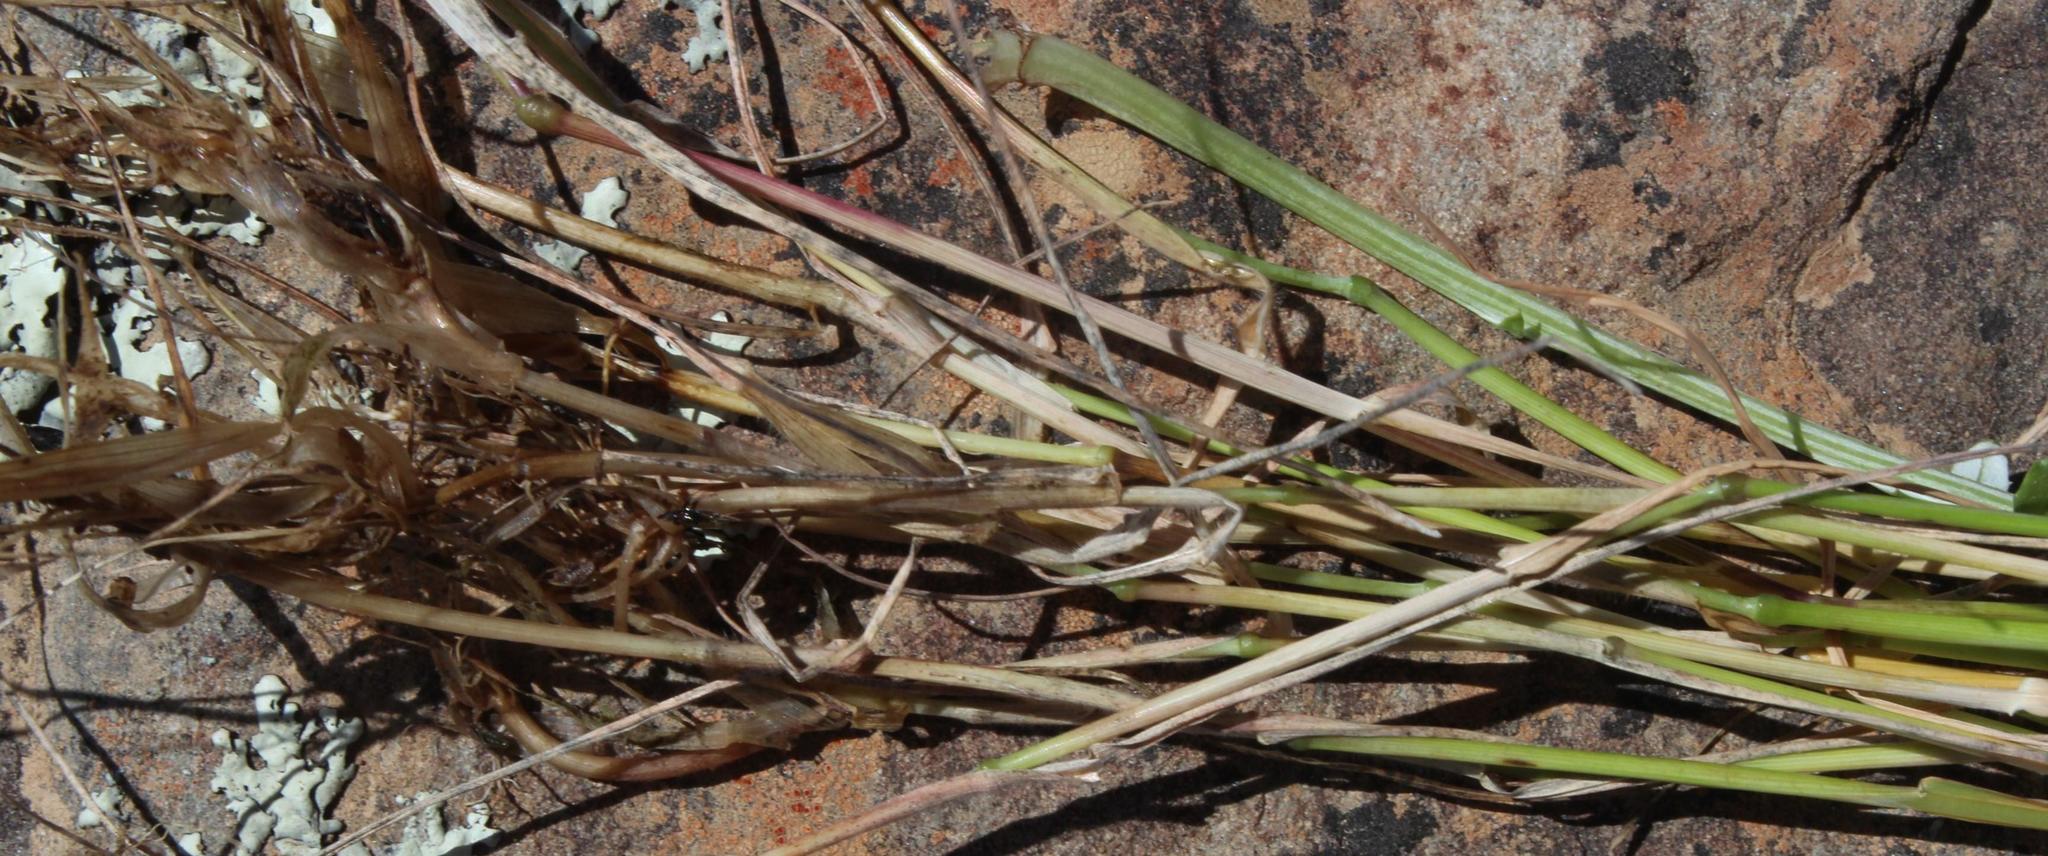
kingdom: Plantae
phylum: Tracheophyta
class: Liliopsida
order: Poales
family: Poaceae
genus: Hordeum
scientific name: Hordeum murinum
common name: Wall barley
